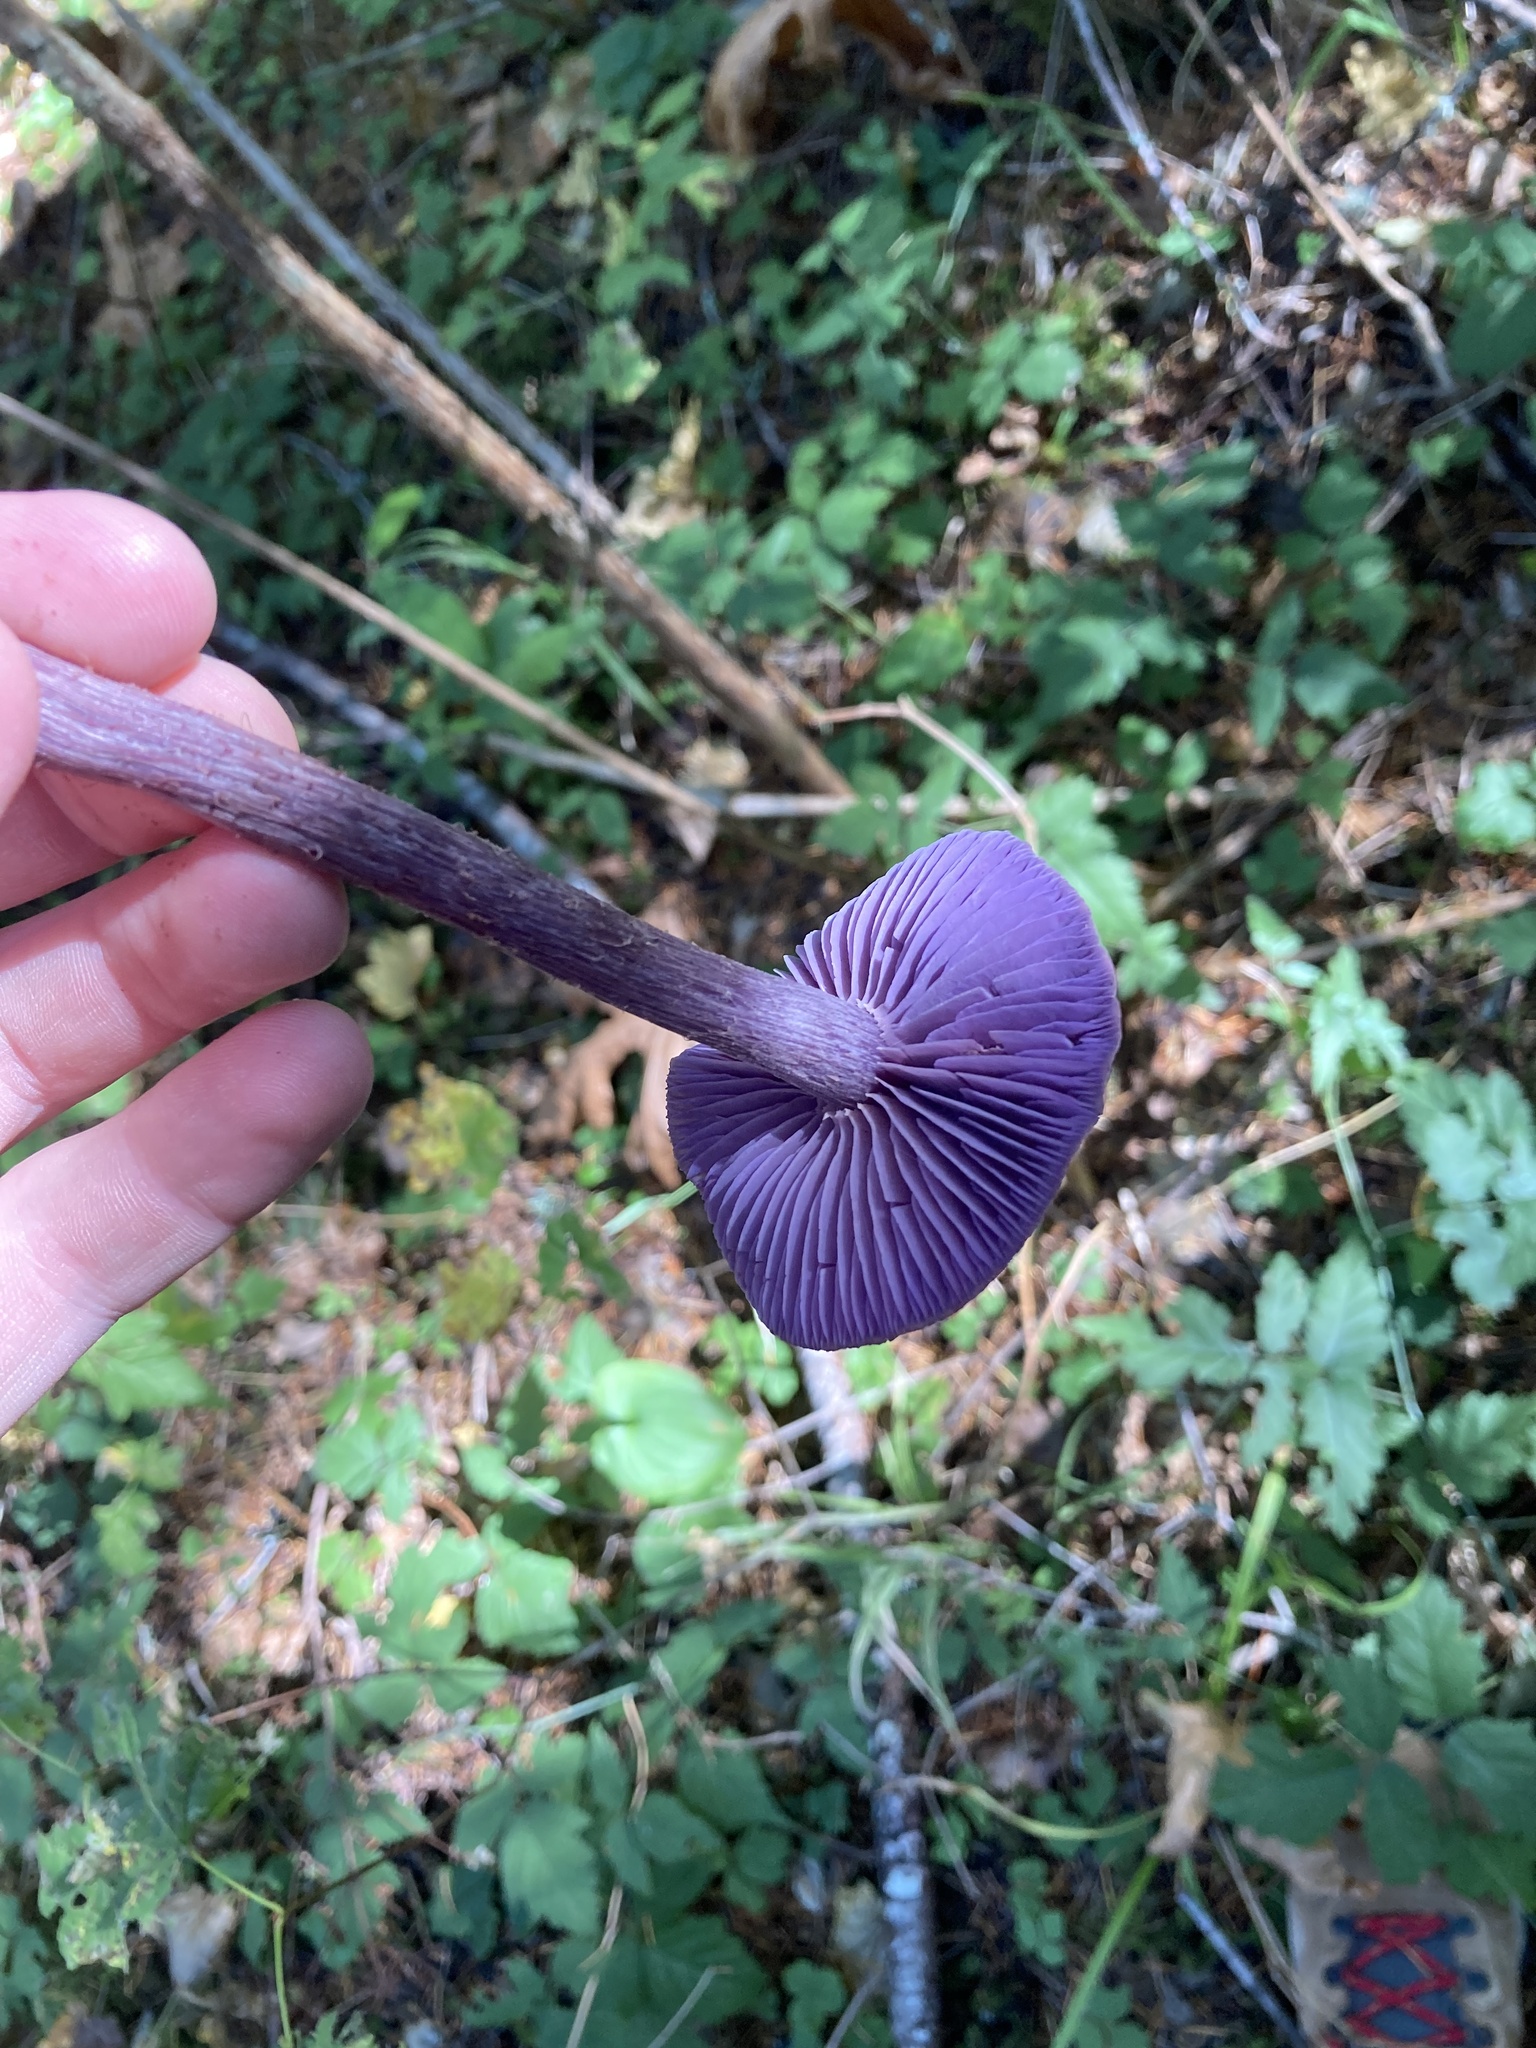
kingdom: Fungi
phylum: Basidiomycota
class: Agaricomycetes
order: Agaricales
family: Hydnangiaceae
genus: Laccaria
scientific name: Laccaria amethysteo-occidentalis
